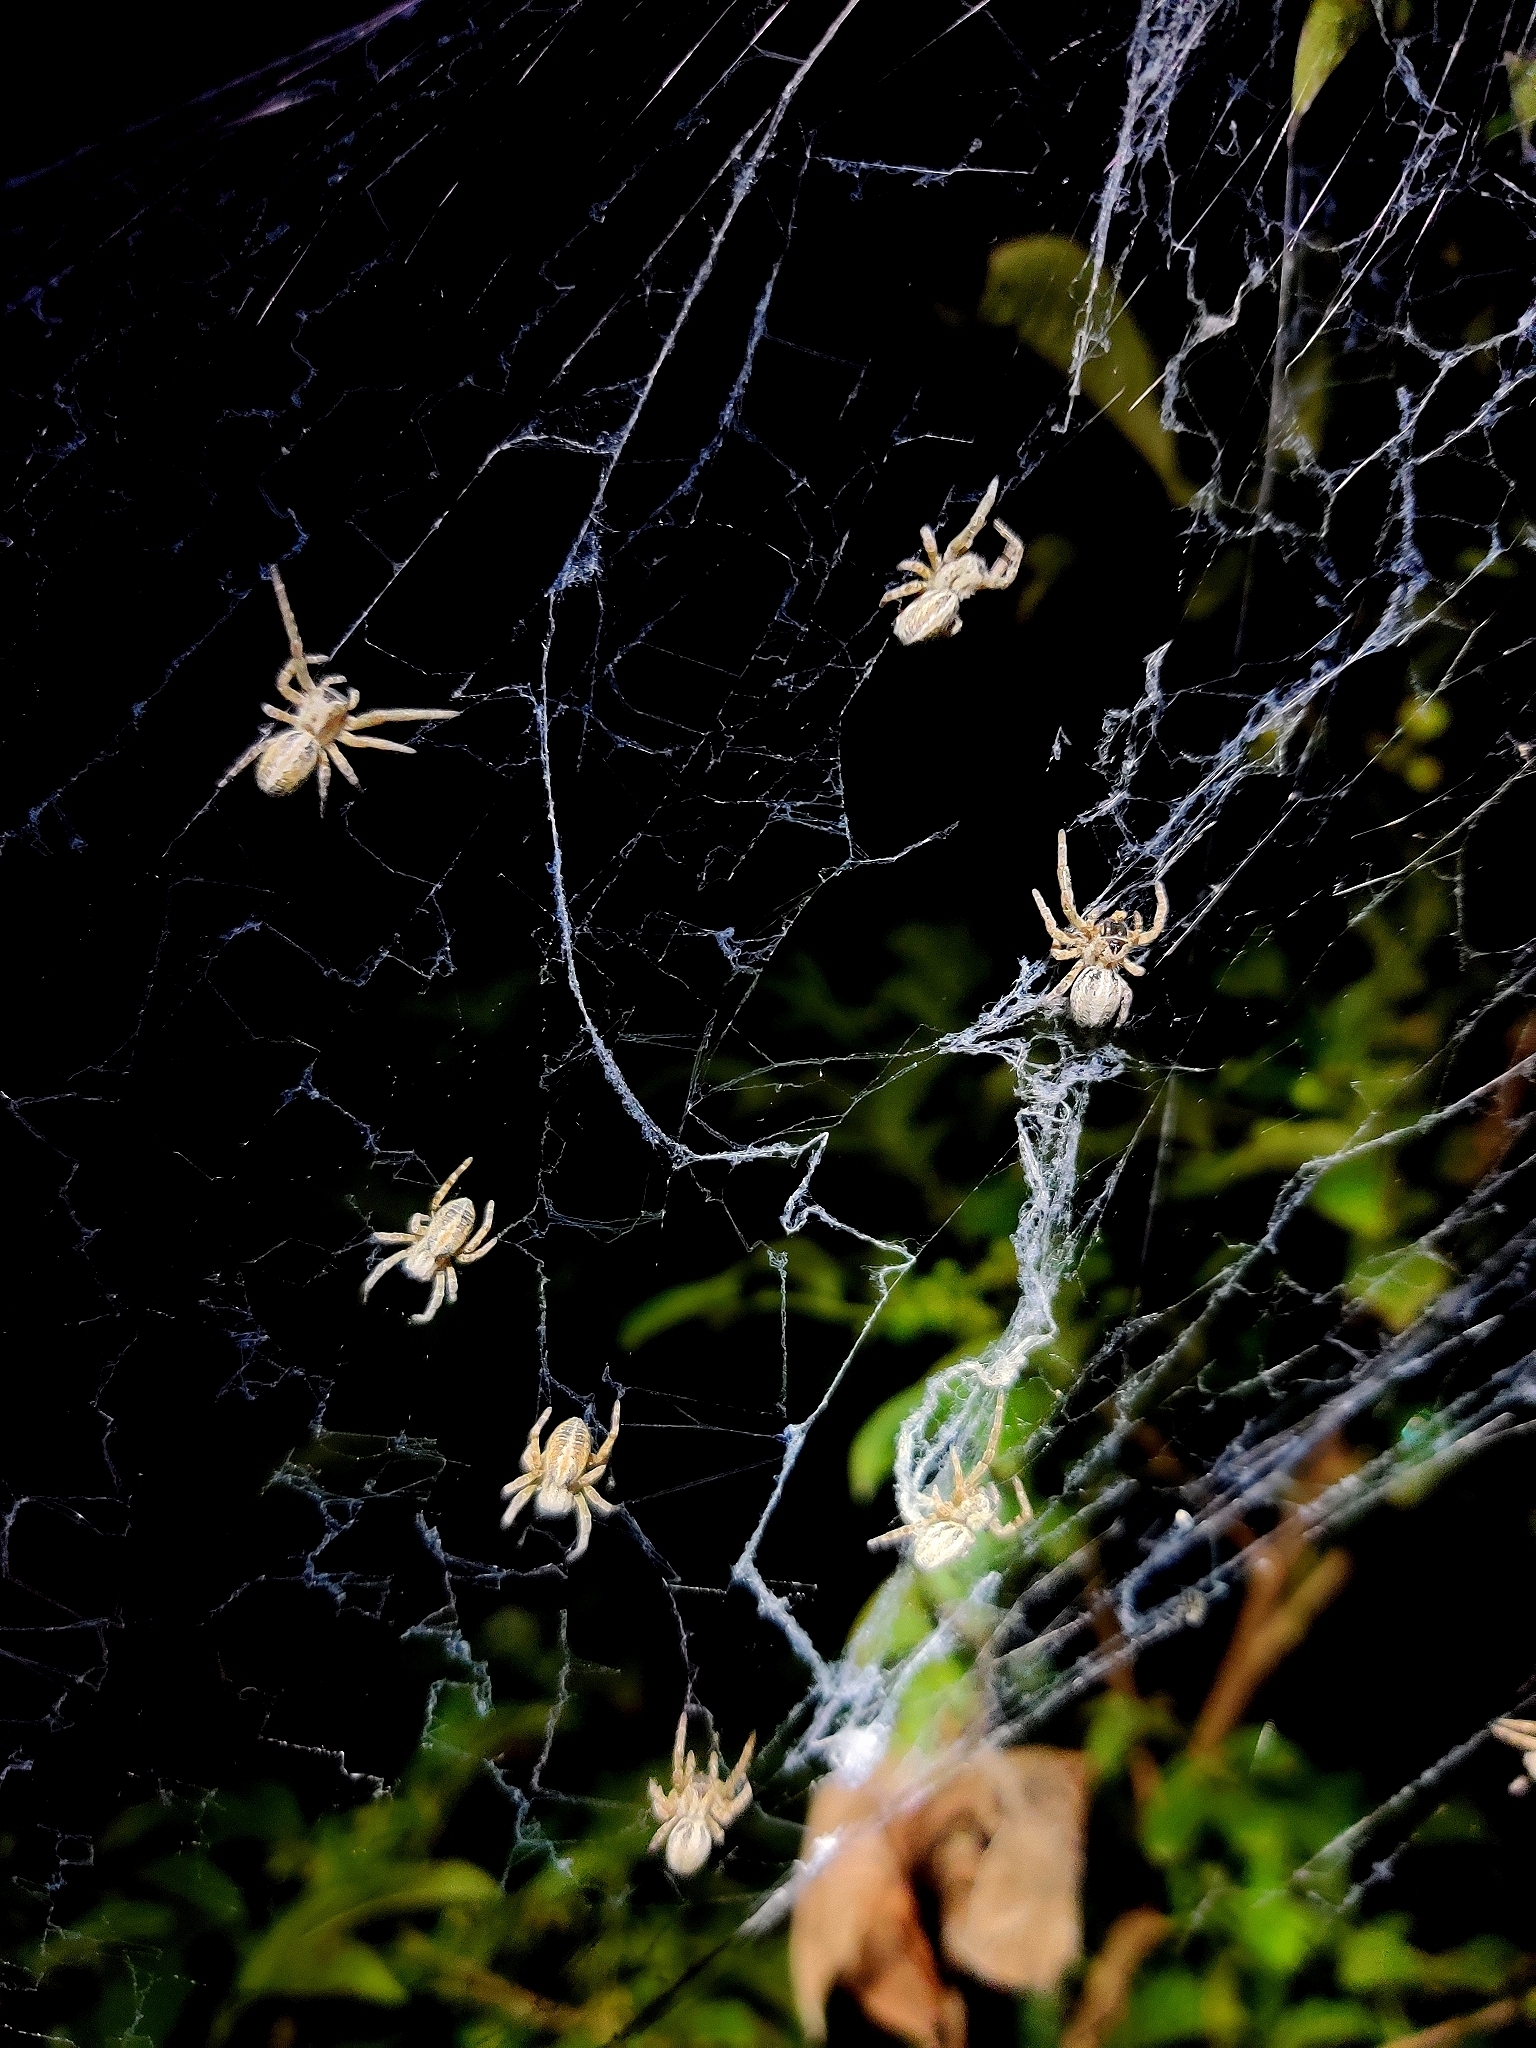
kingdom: Animalia
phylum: Arthropoda
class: Arachnida
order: Araneae
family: Eresidae
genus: Stegodyphus
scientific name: Stegodyphus sarasinorum
